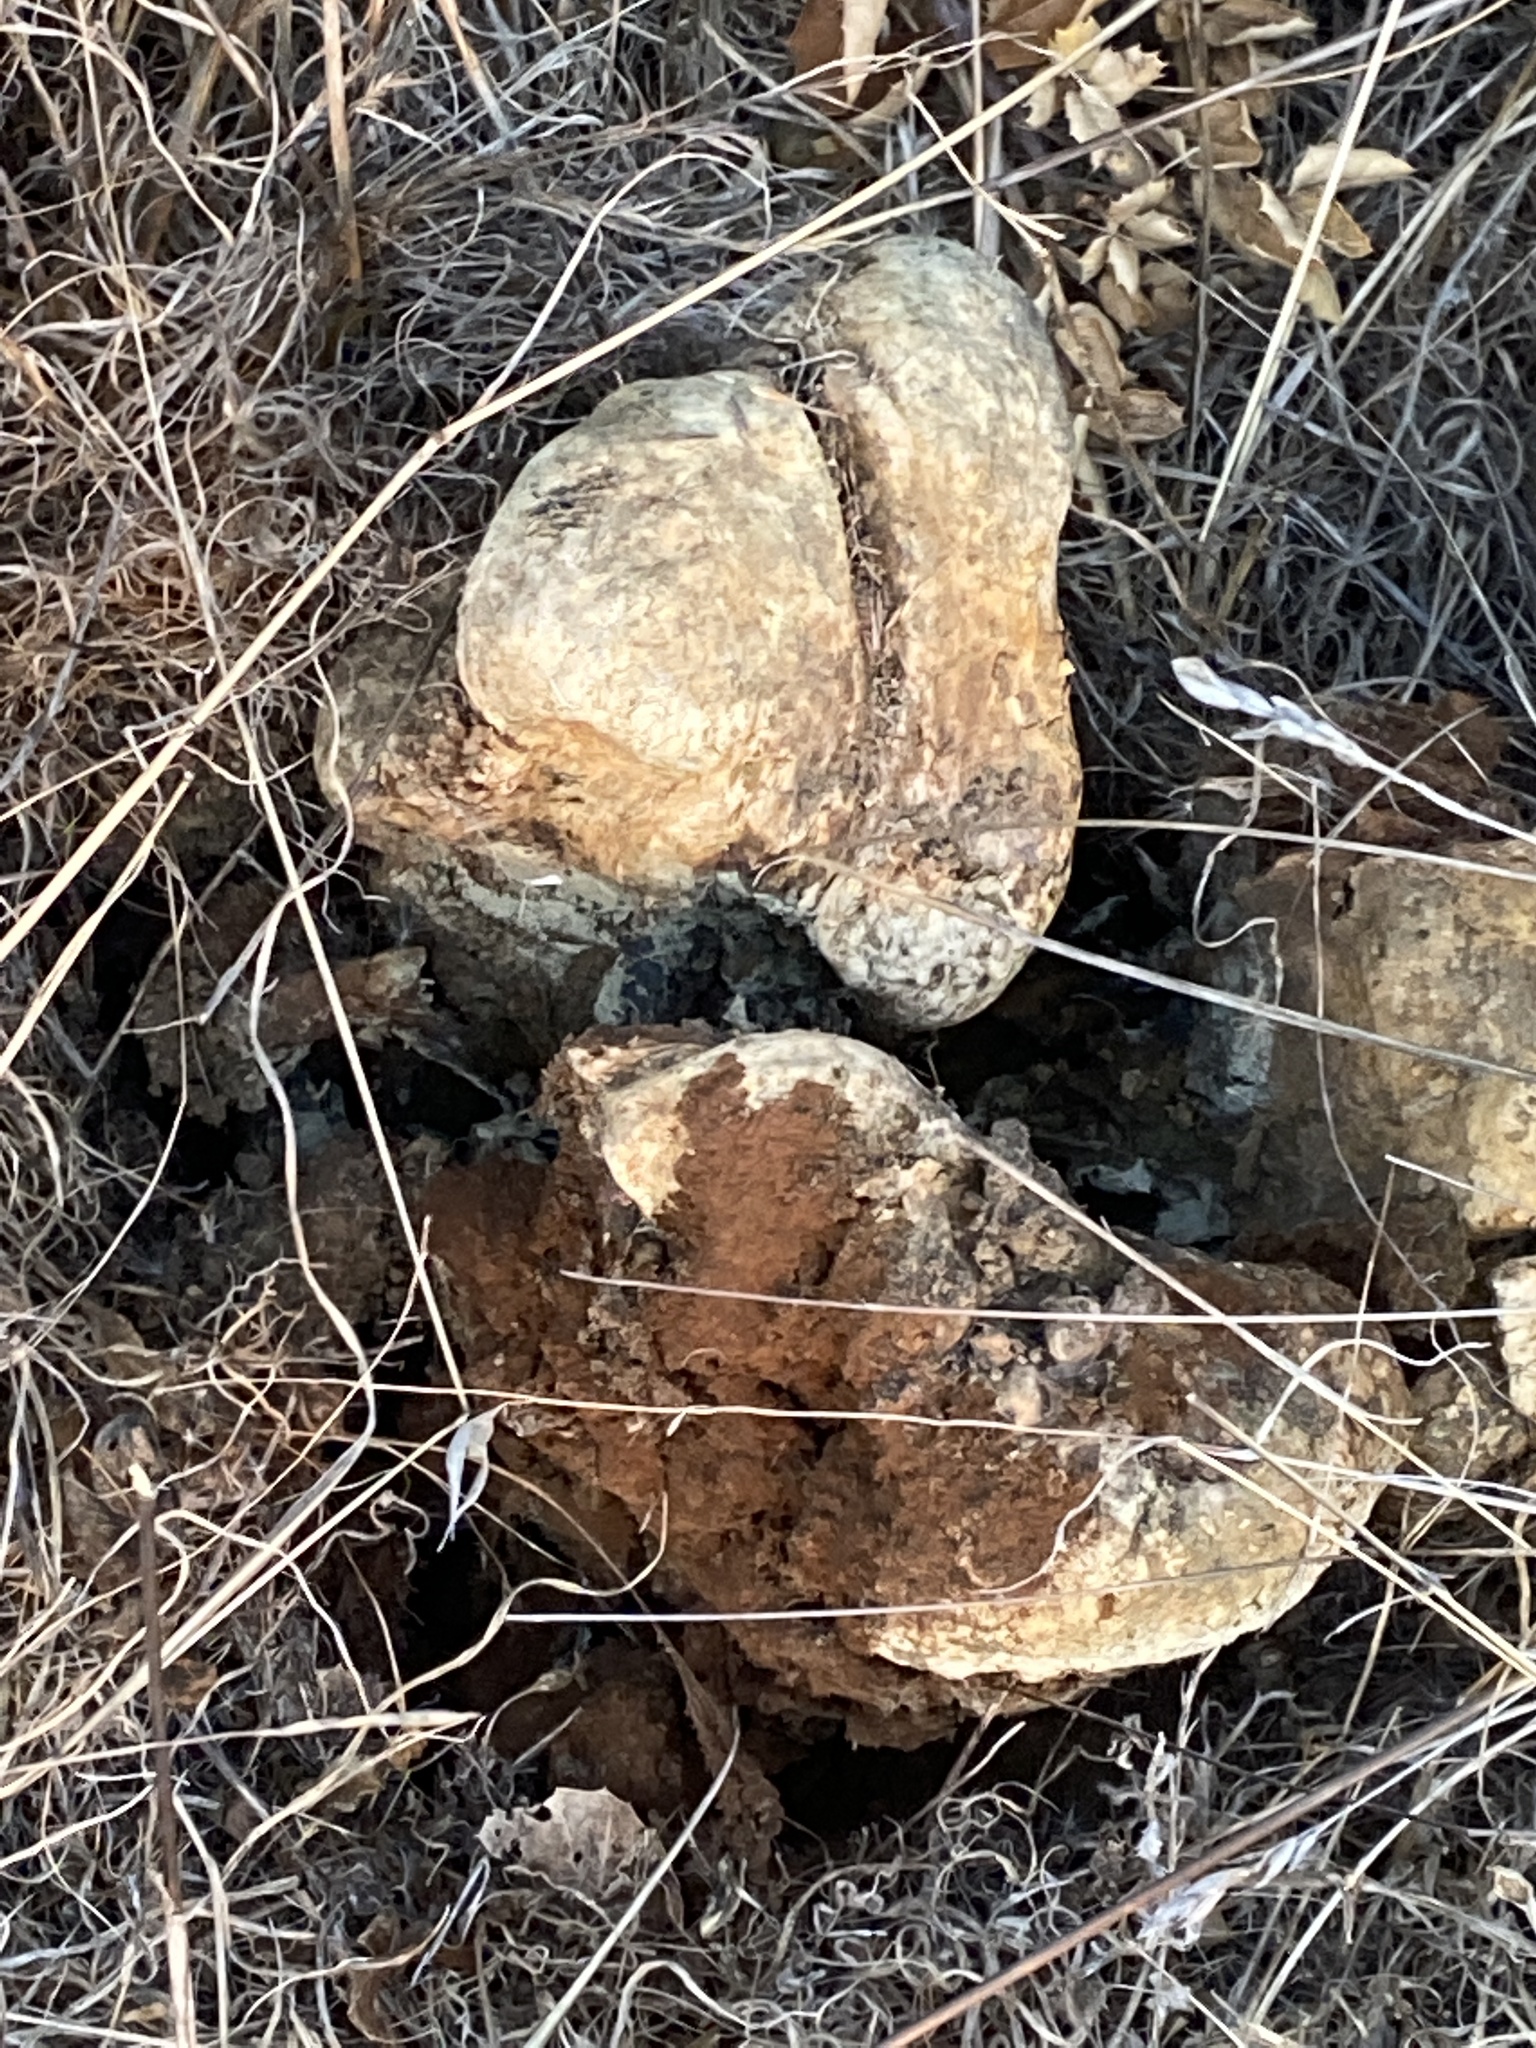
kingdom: Fungi
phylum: Basidiomycota
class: Agaricomycetes
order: Boletales
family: Sclerodermataceae
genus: Pisolithus
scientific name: Pisolithus tinctorius
